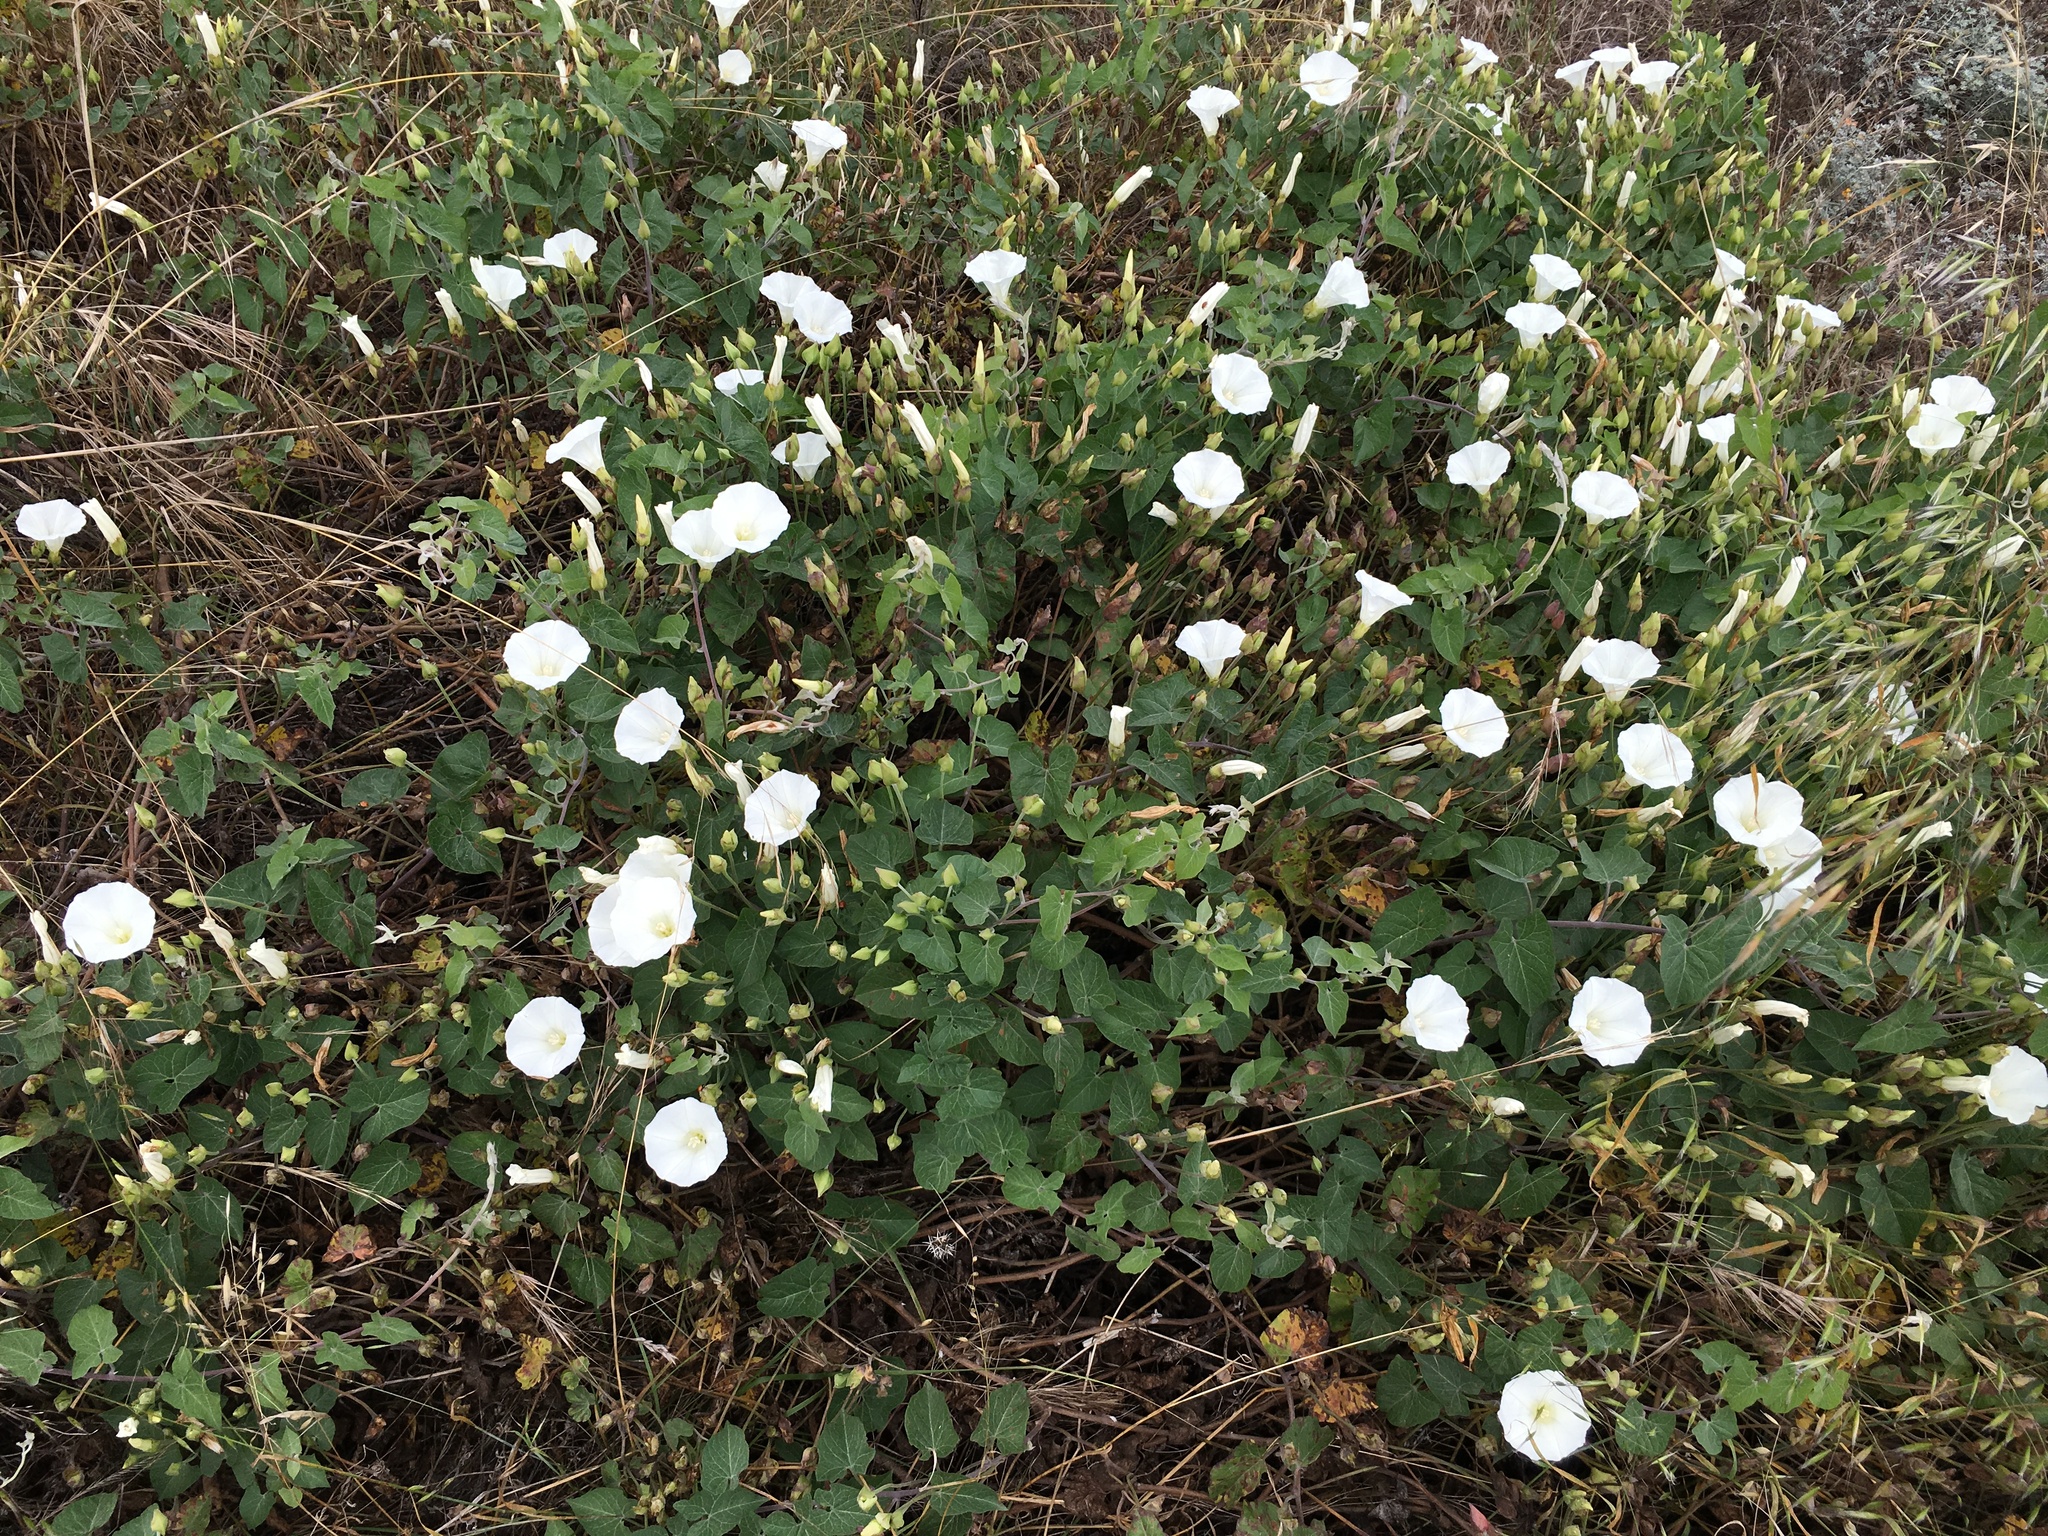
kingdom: Plantae
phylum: Tracheophyta
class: Magnoliopsida
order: Solanales
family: Convolvulaceae
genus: Calystegia
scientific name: Calystegia macrostegia
